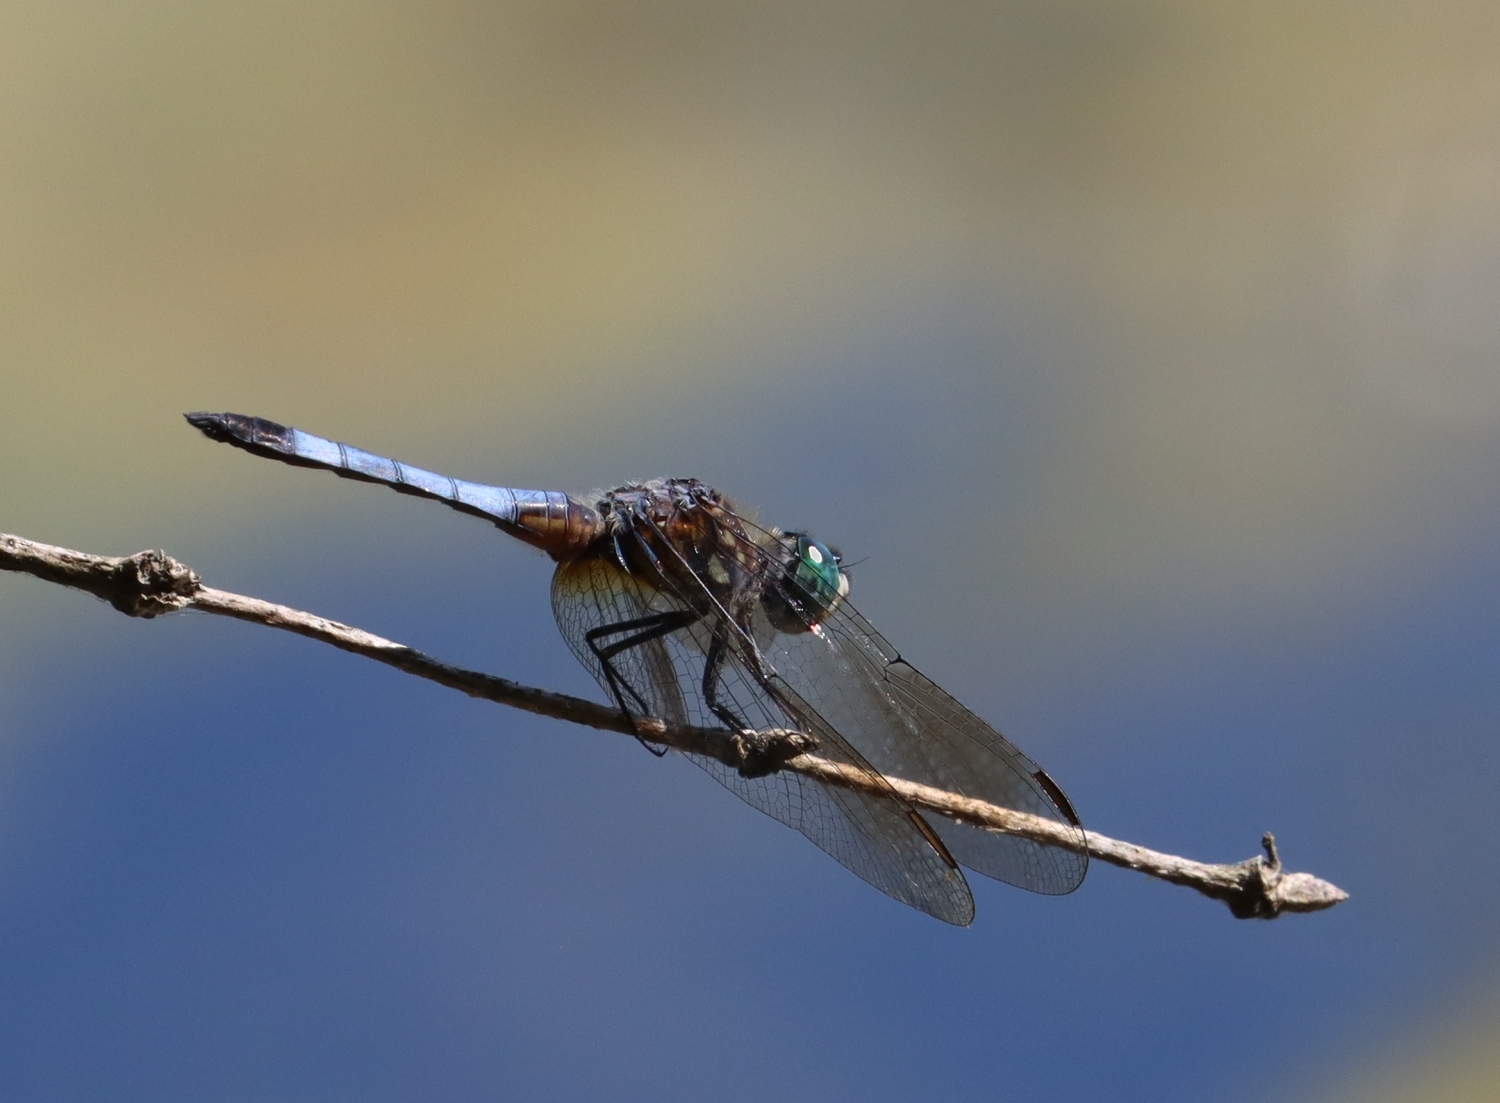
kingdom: Animalia
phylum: Arthropoda
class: Insecta
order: Odonata
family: Libellulidae
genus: Pachydiplax
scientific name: Pachydiplax longipennis
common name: Blue dasher
